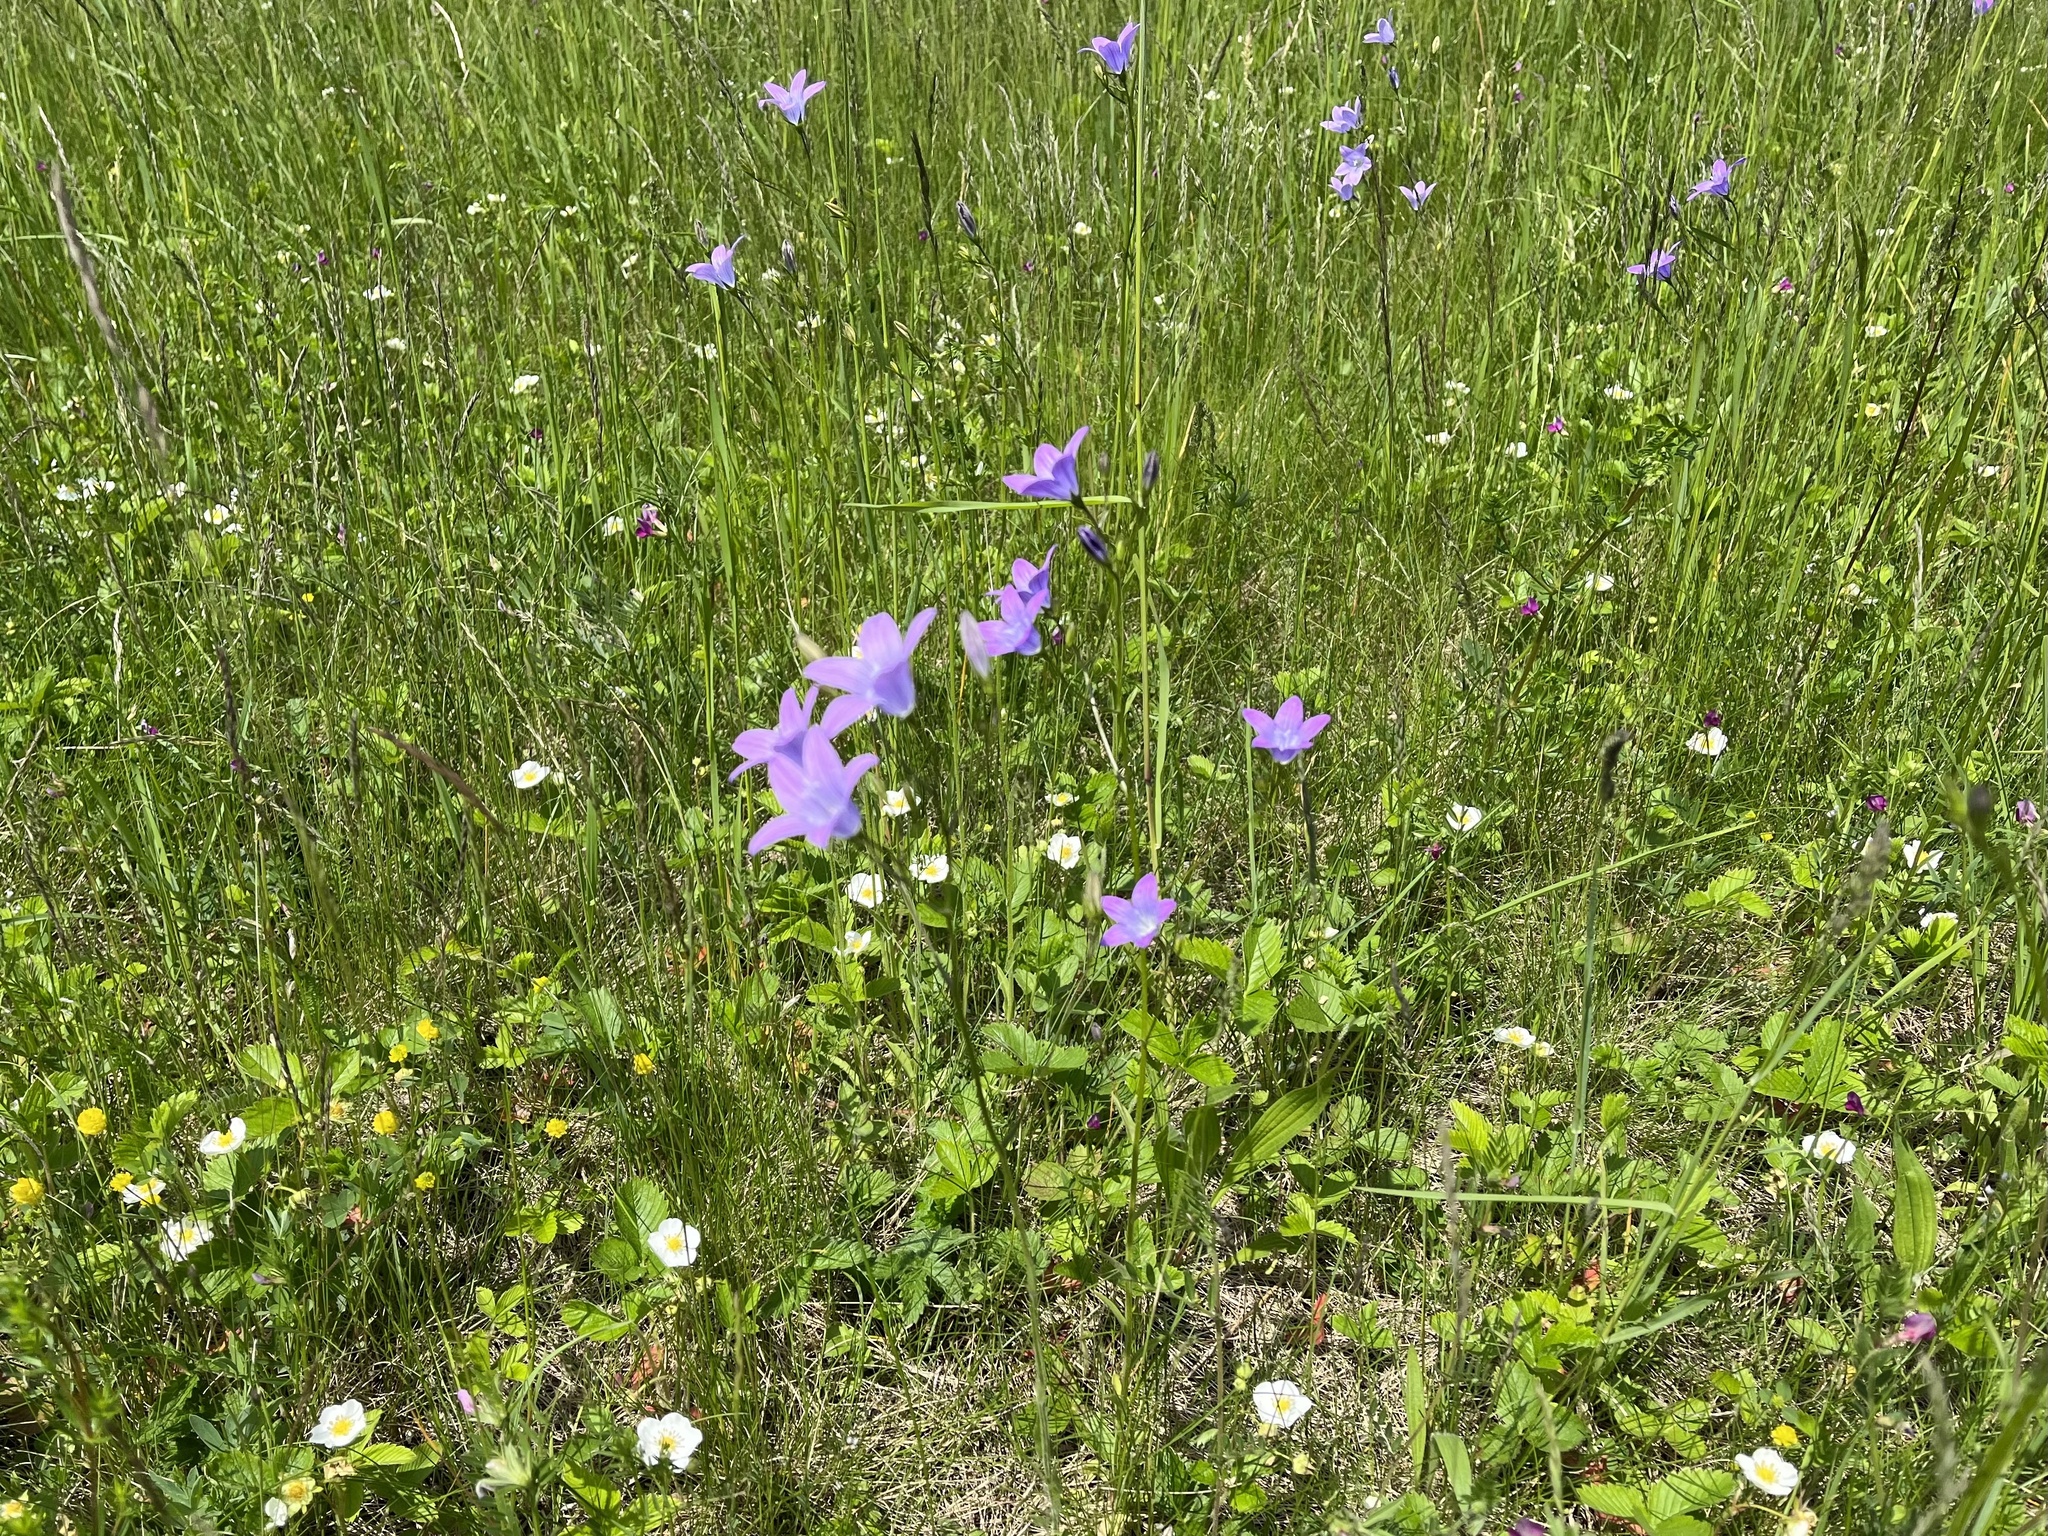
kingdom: Plantae
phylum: Tracheophyta
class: Magnoliopsida
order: Asterales
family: Campanulaceae
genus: Campanula
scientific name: Campanula patula
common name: Spreading bellflower
